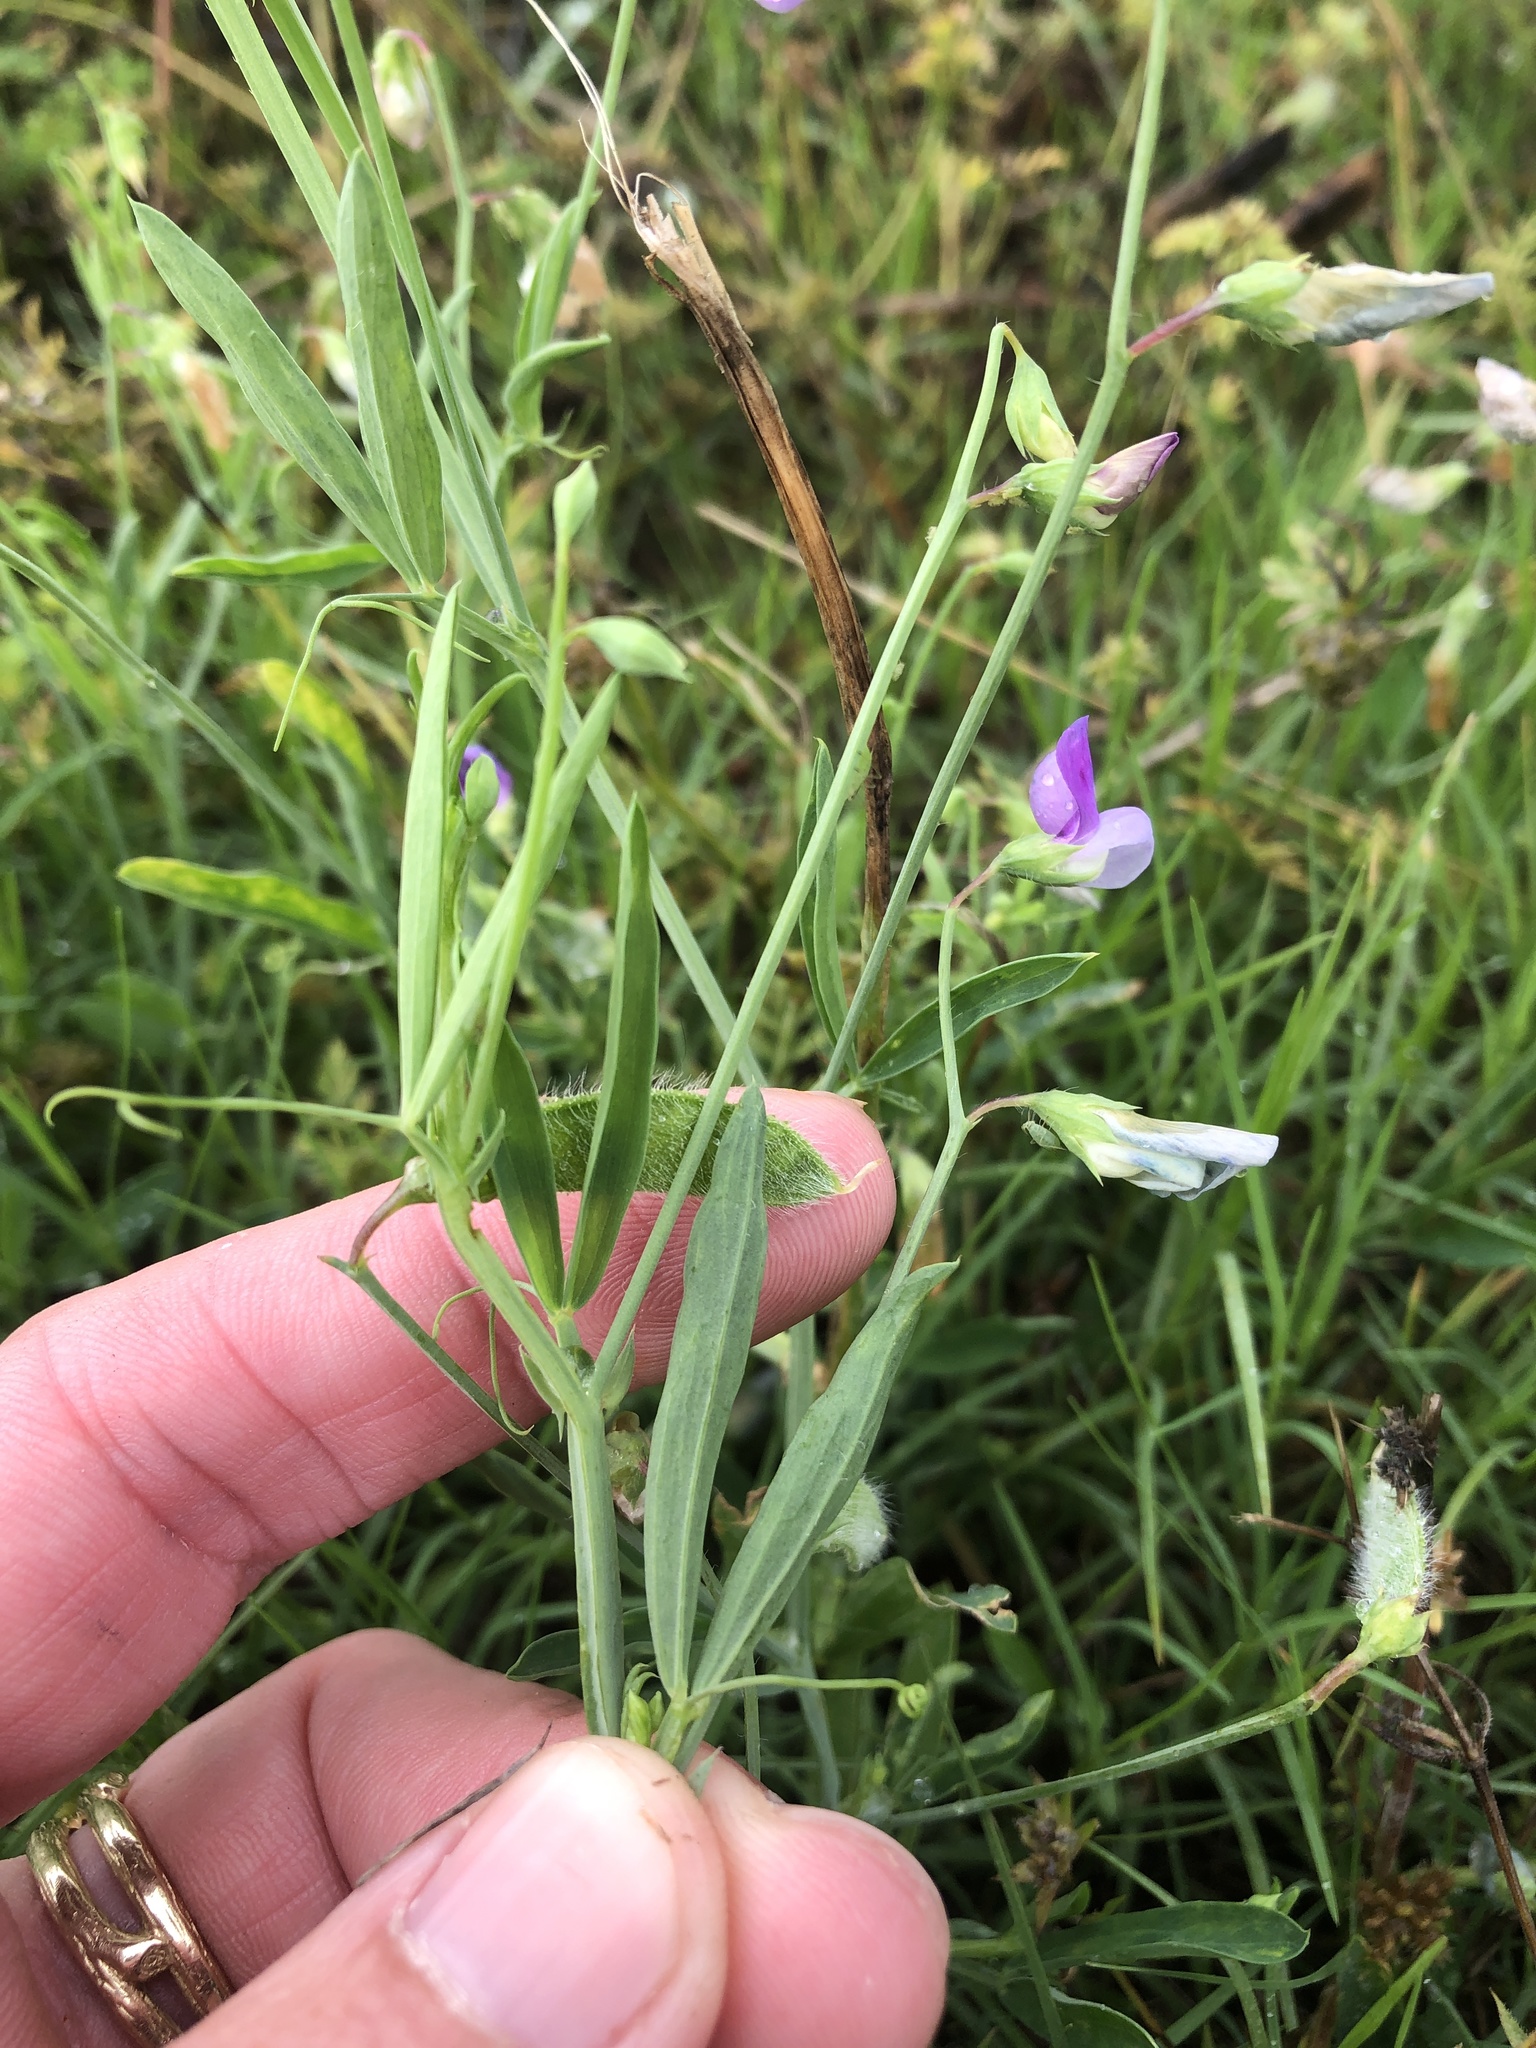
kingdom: Plantae
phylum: Tracheophyta
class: Magnoliopsida
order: Fabales
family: Fabaceae
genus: Lathyrus
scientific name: Lathyrus hirsutus
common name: Hairy vetchling
